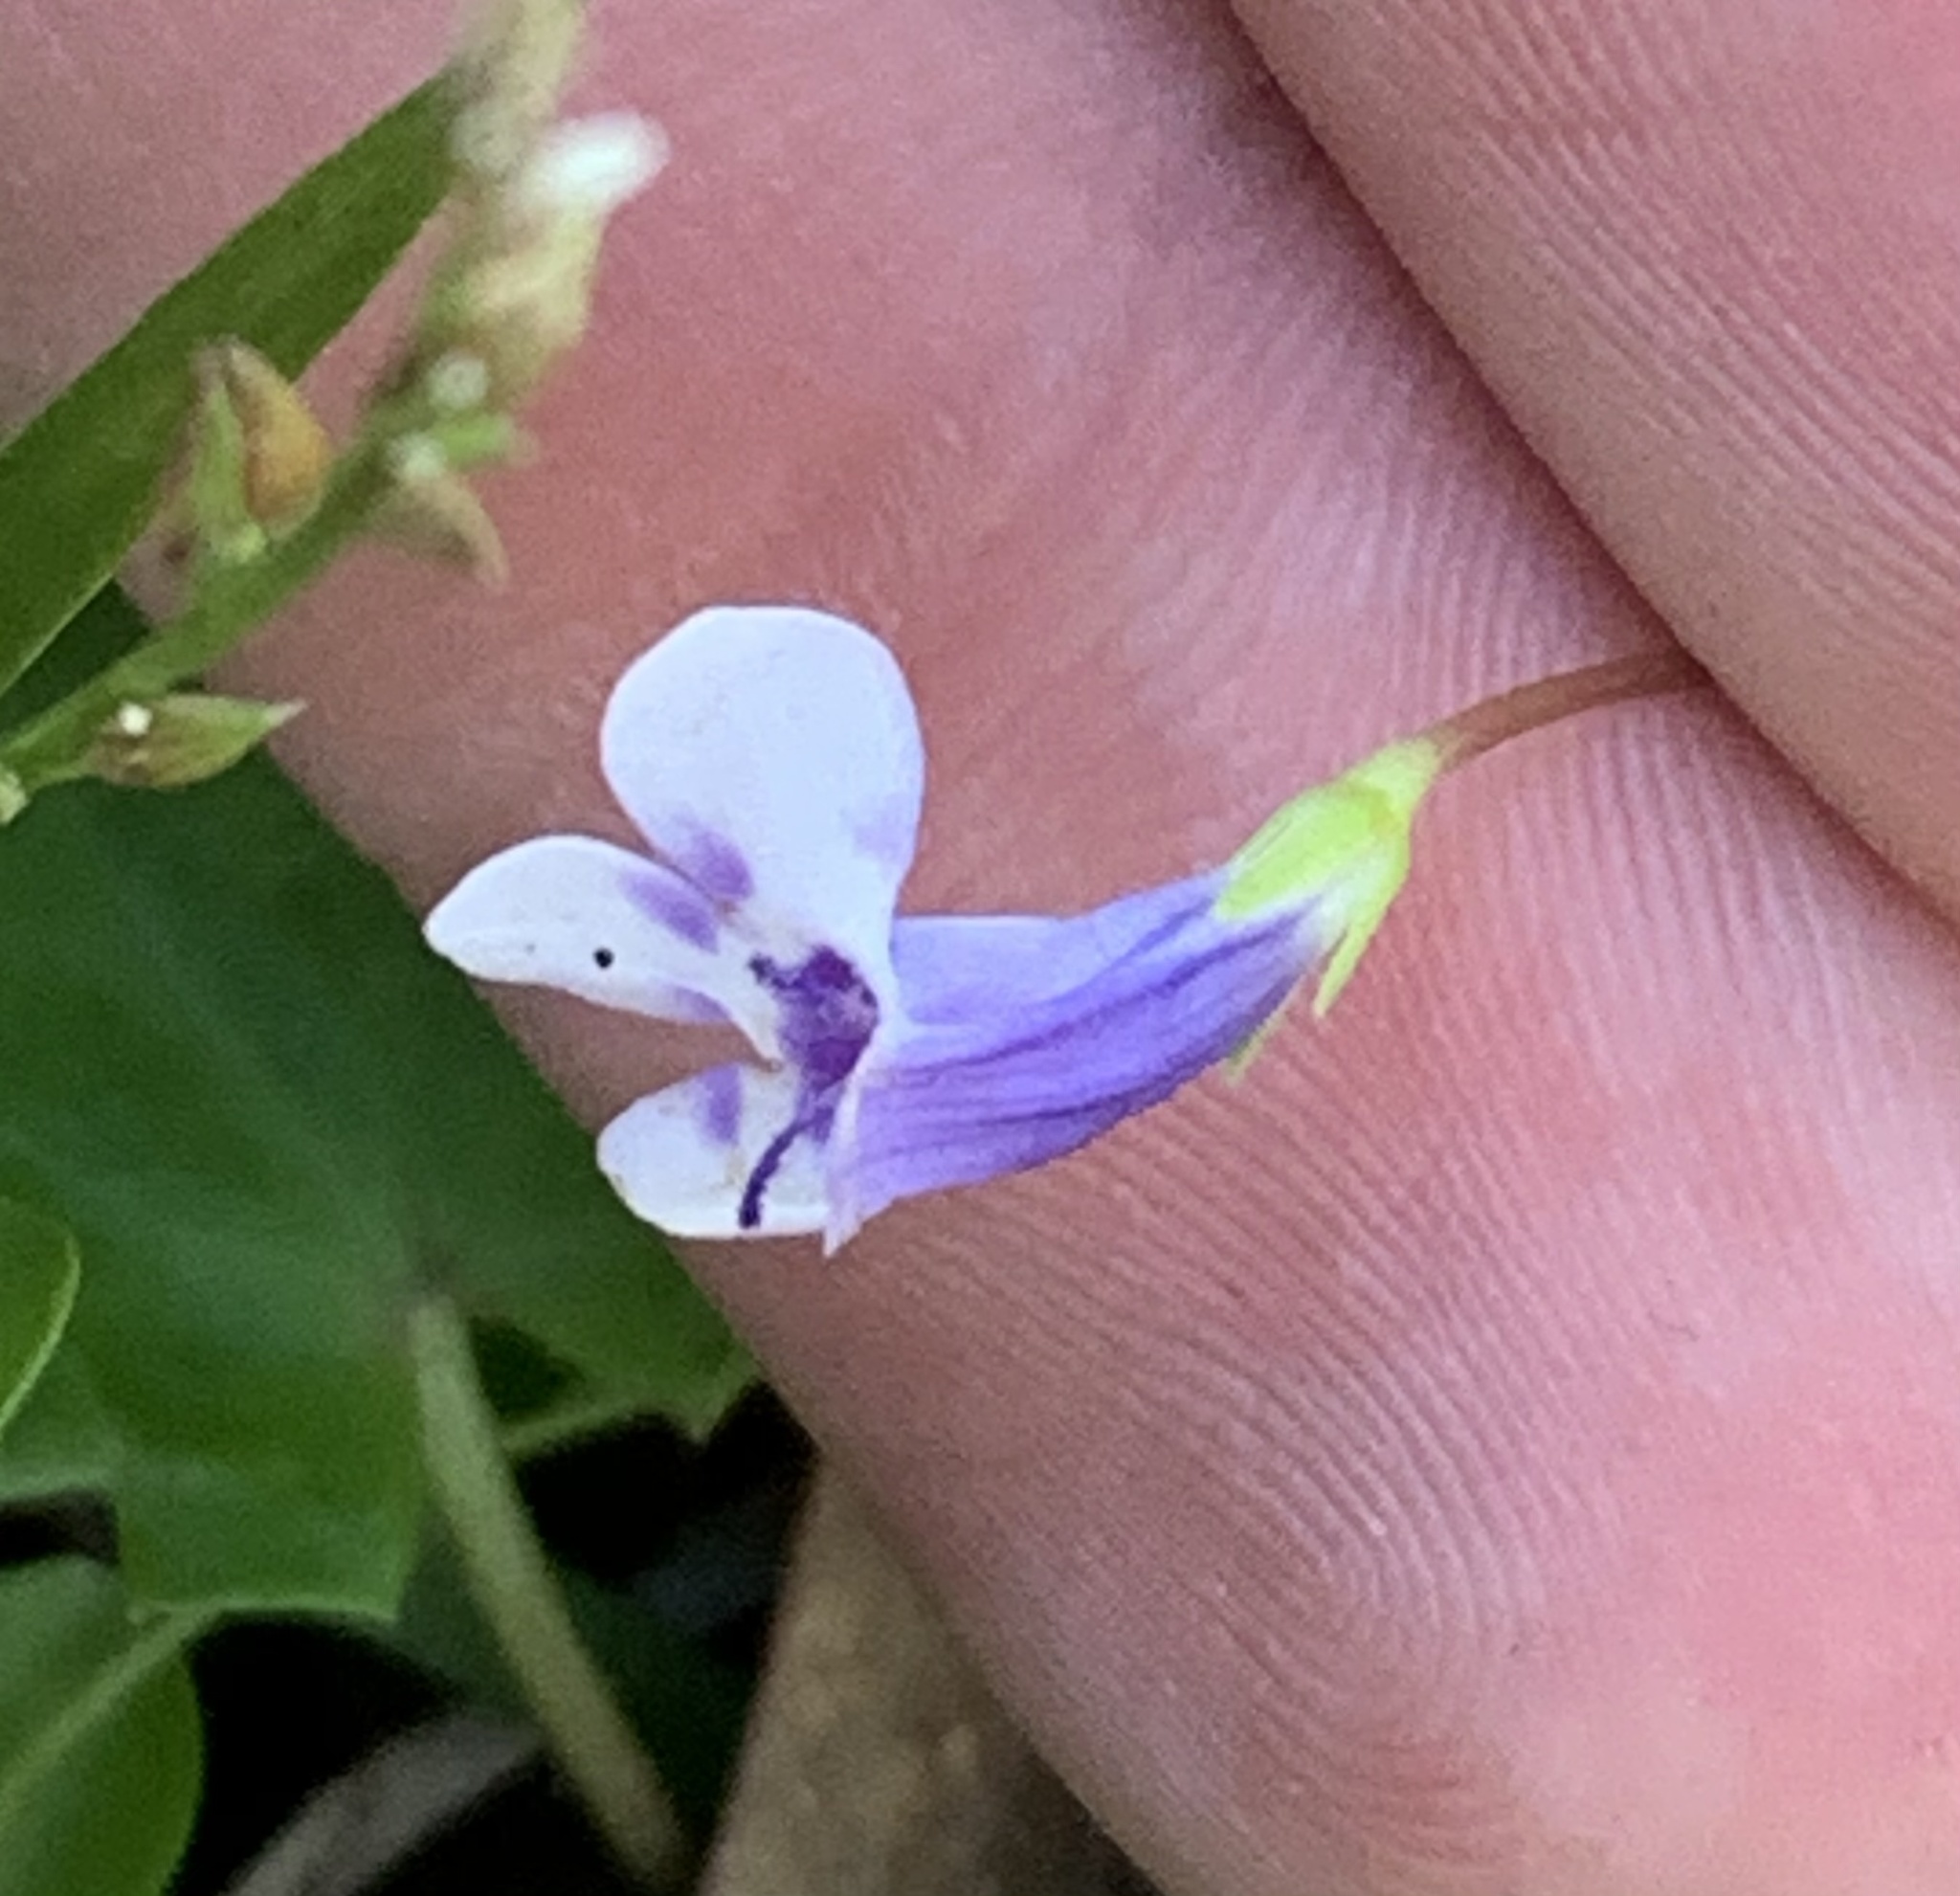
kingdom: Plantae
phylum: Tracheophyta
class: Magnoliopsida
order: Lamiales
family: Linderniaceae
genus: Lindernia
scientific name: Lindernia grandiflora
